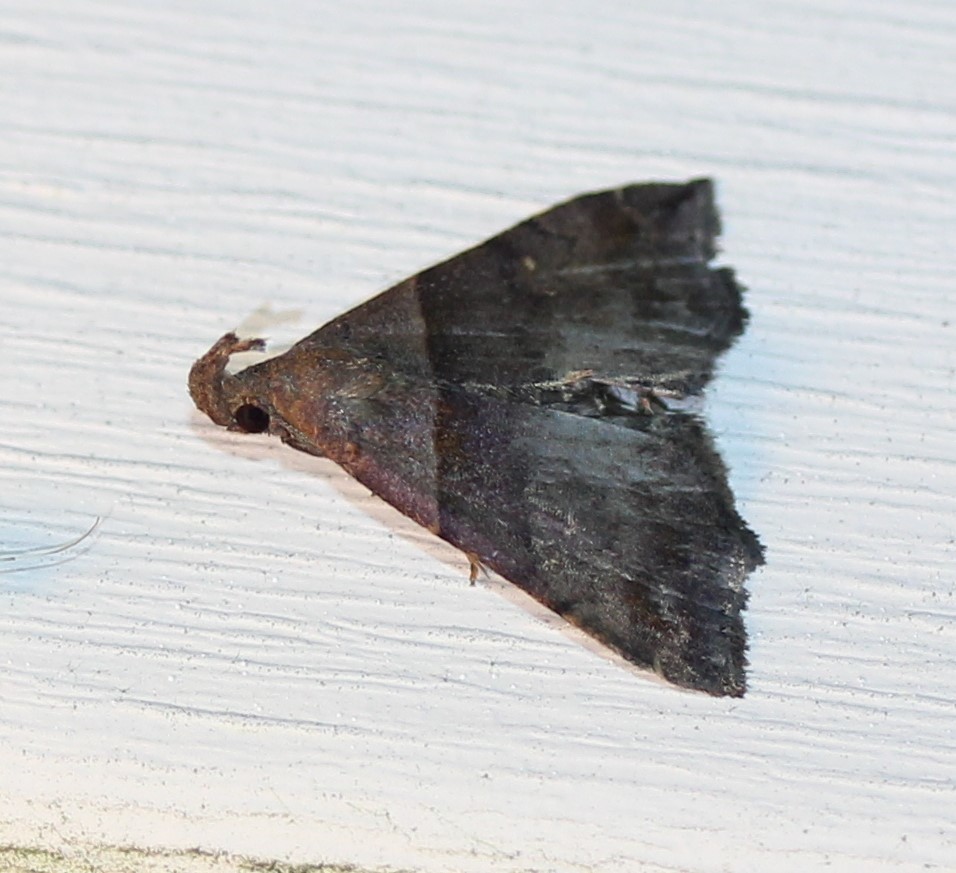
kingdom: Animalia
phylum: Arthropoda
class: Insecta
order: Lepidoptera
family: Erebidae
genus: Lascoria
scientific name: Lascoria ambigualis
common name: Ambiguous moth
